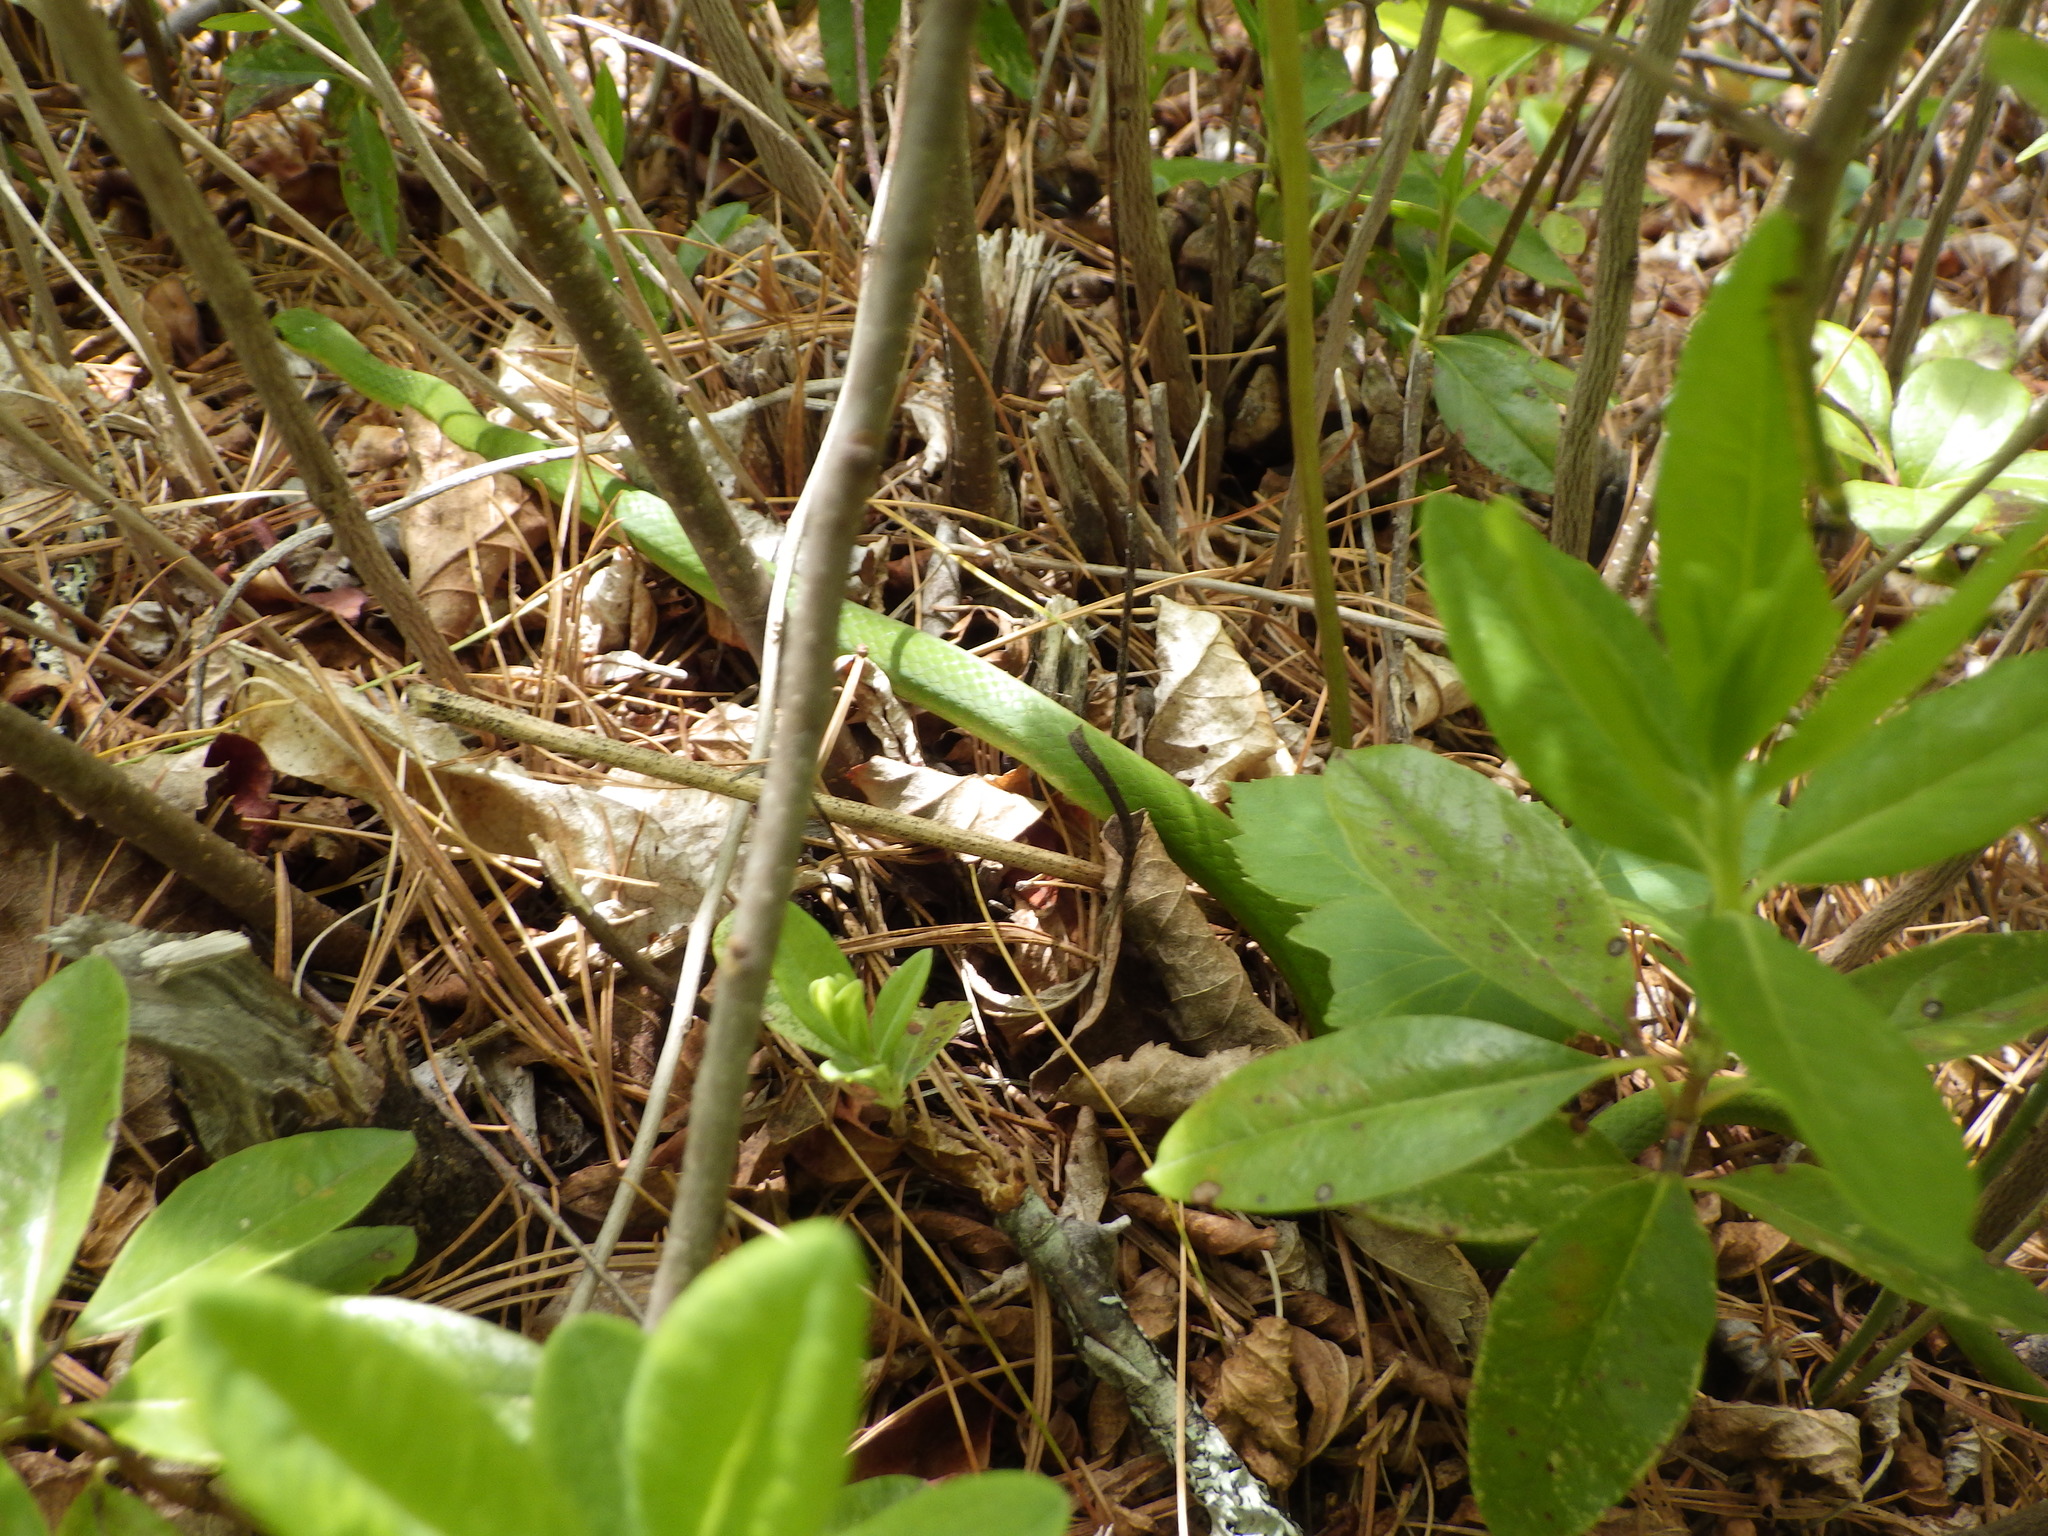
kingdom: Animalia
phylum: Chordata
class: Squamata
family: Colubridae
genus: Opheodrys
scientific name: Opheodrys vernalis
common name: Smooth green snake
